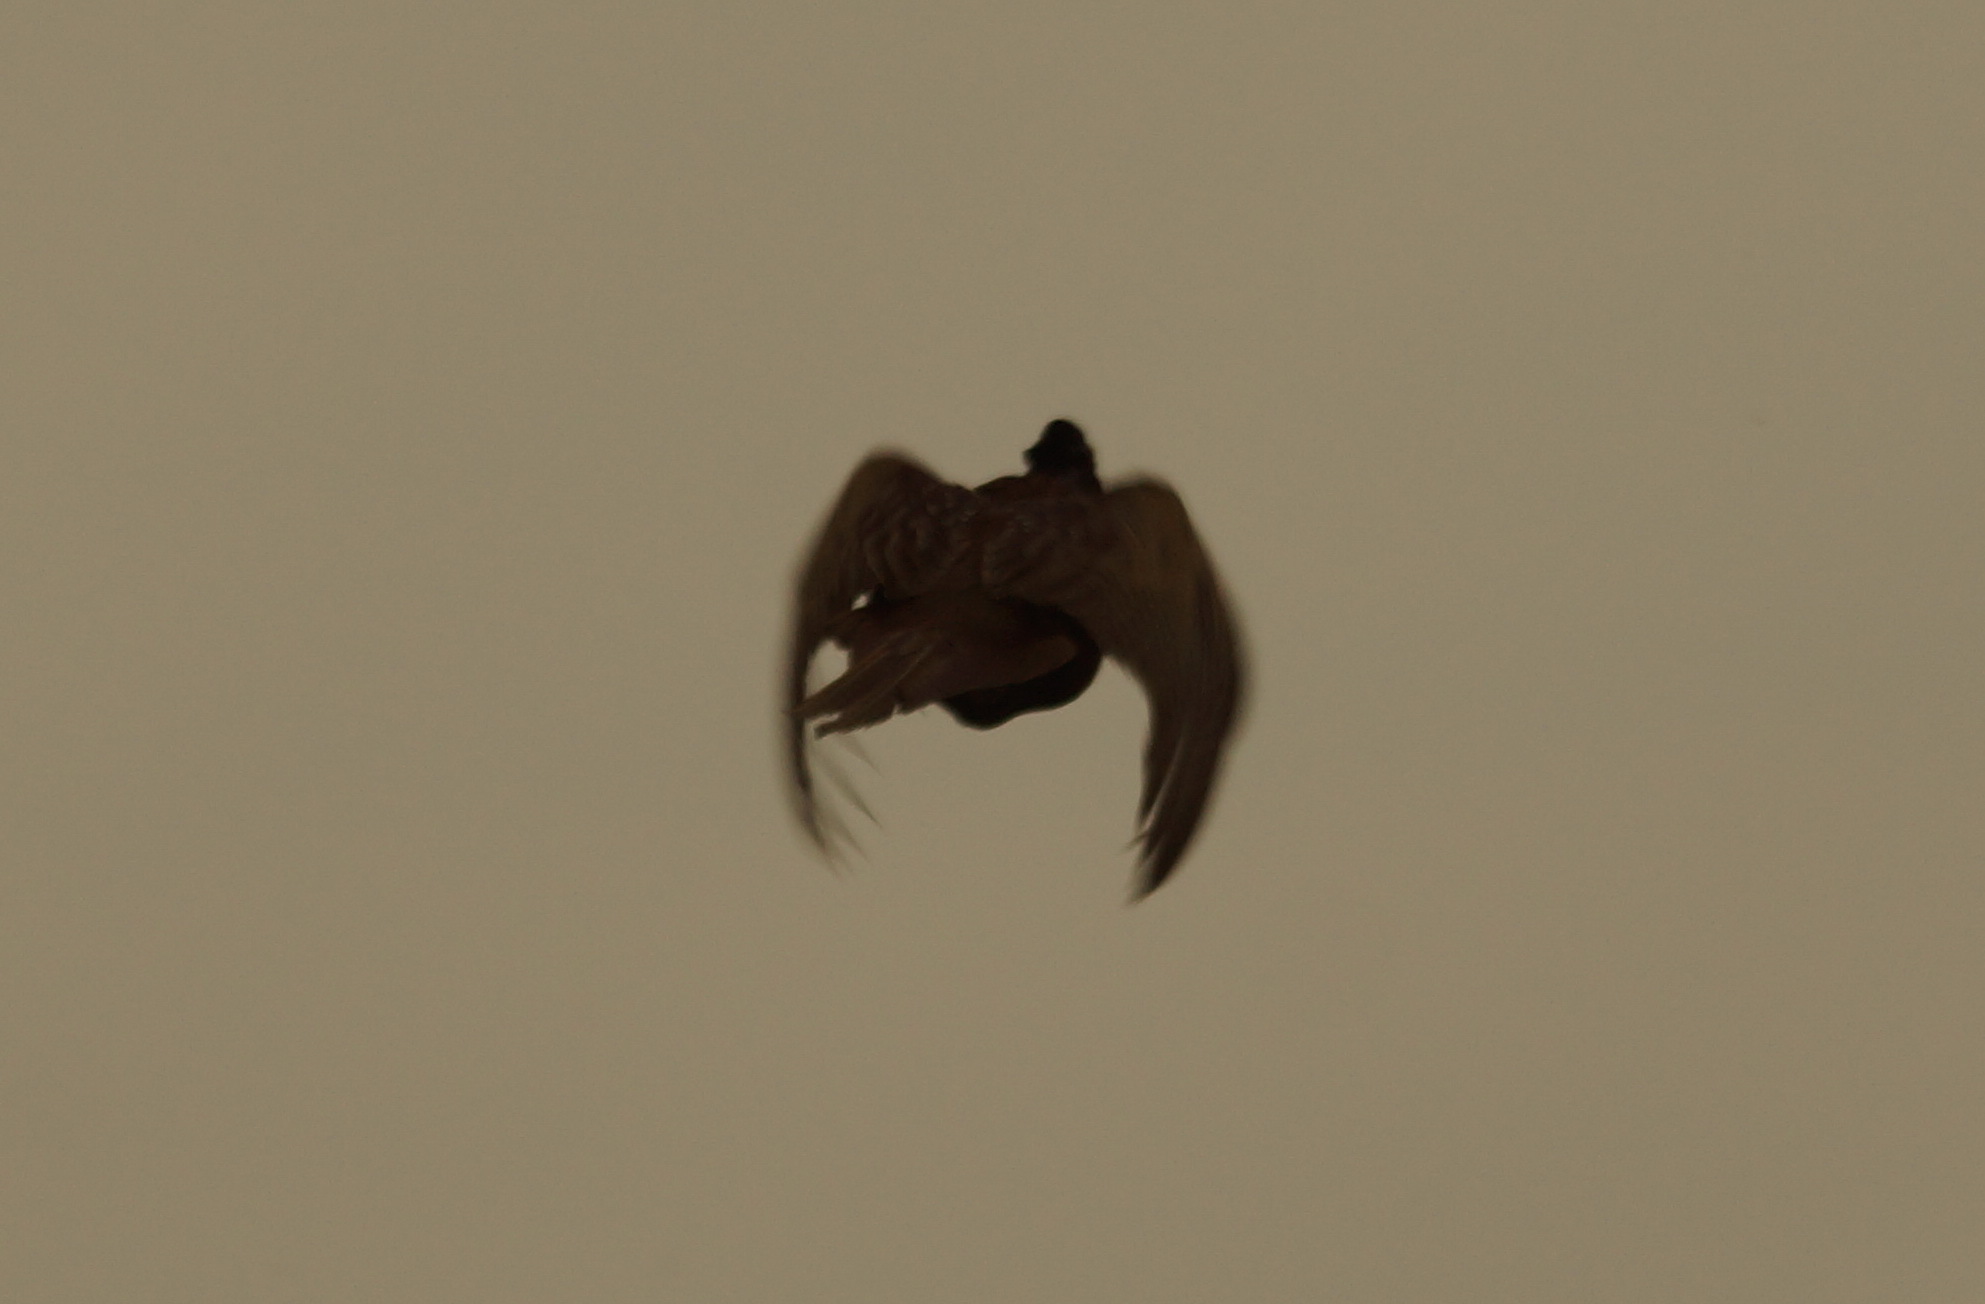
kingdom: Animalia
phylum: Chordata
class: Aves
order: Galliformes
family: Phasianidae
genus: Phasianus
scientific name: Phasianus colchicus
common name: Common pheasant
